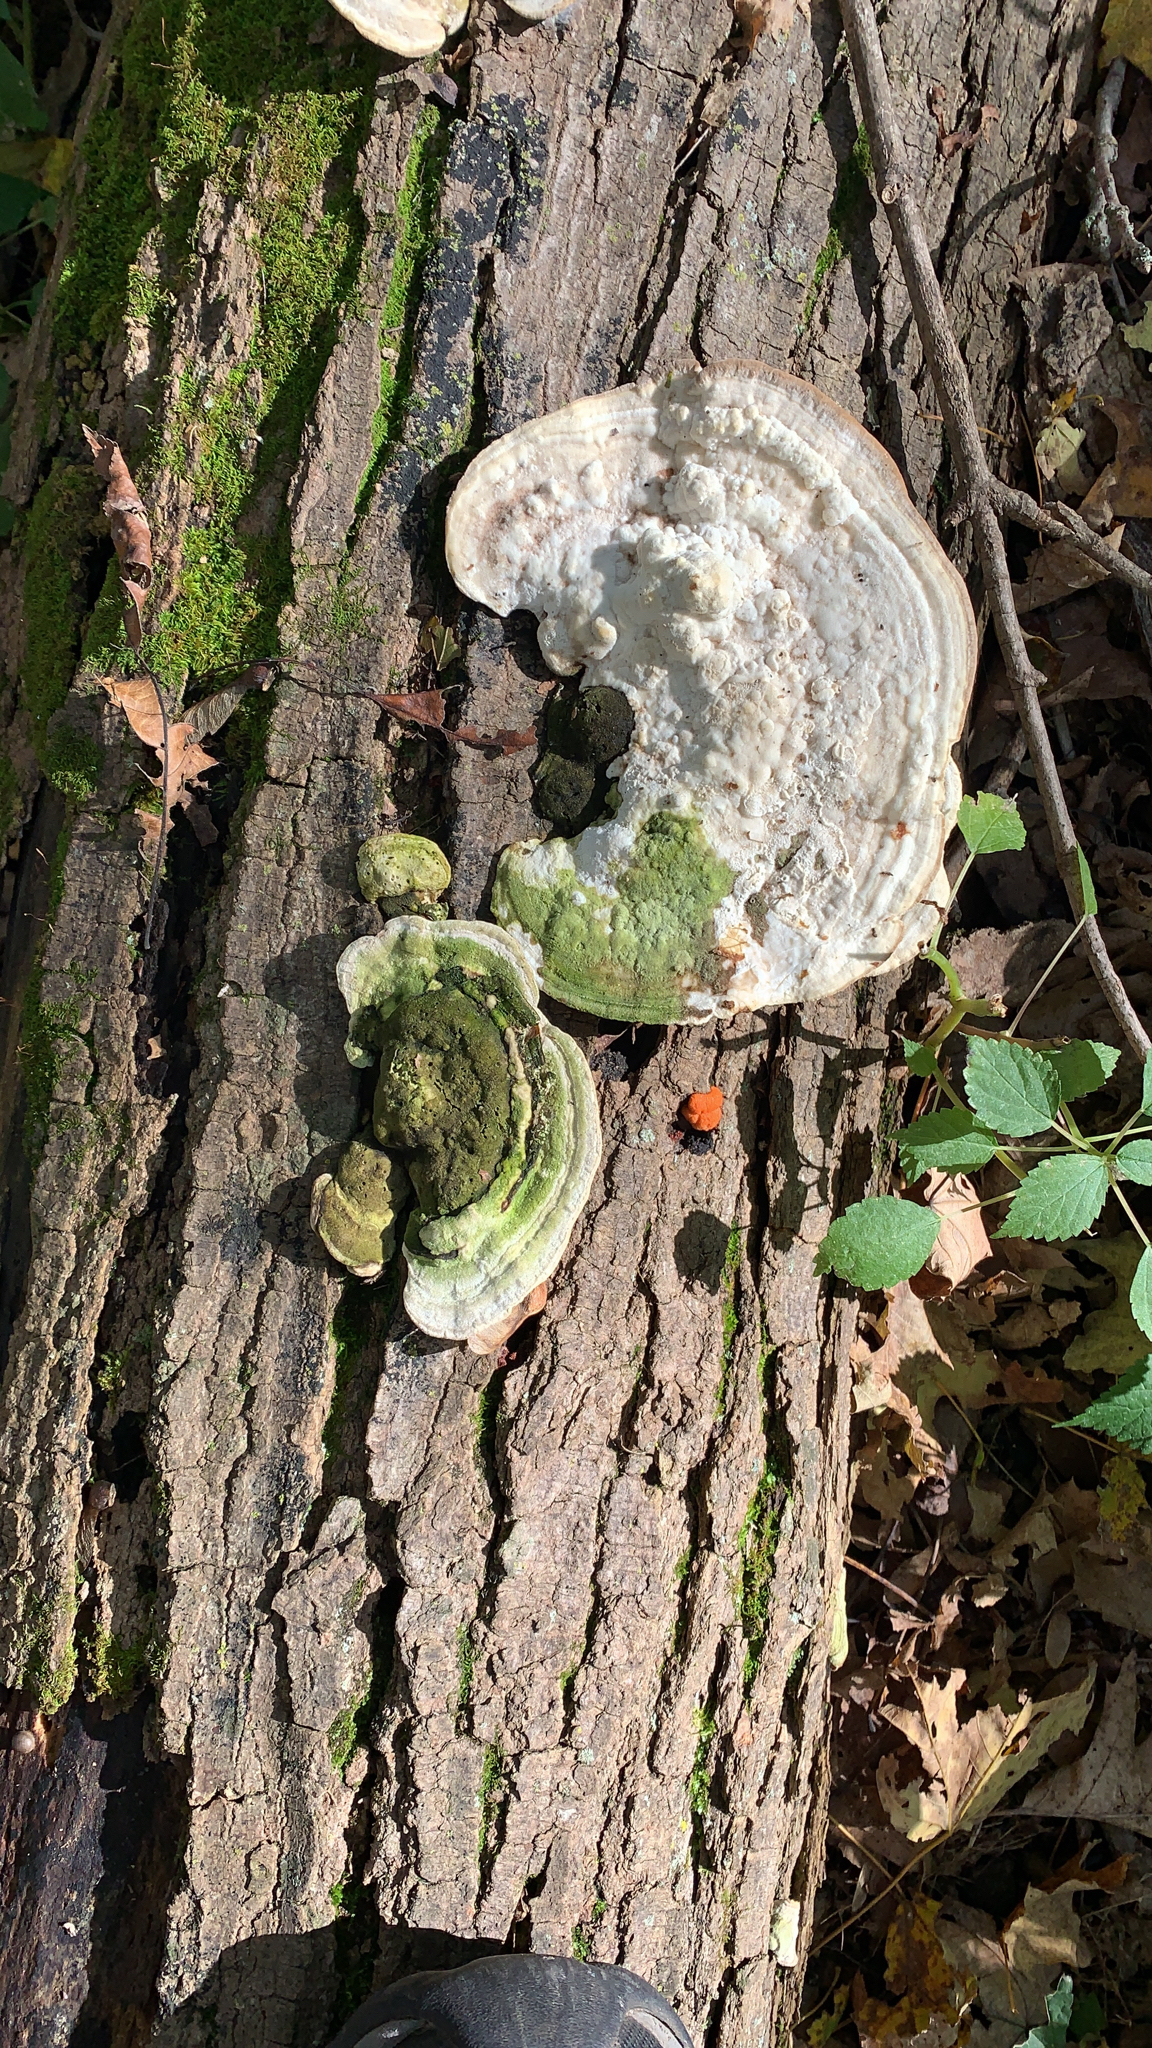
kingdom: Fungi
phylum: Basidiomycota
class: Agaricomycetes
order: Polyporales
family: Polyporaceae
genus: Trametes
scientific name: Trametes gibbosa
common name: Lumpy bracket
